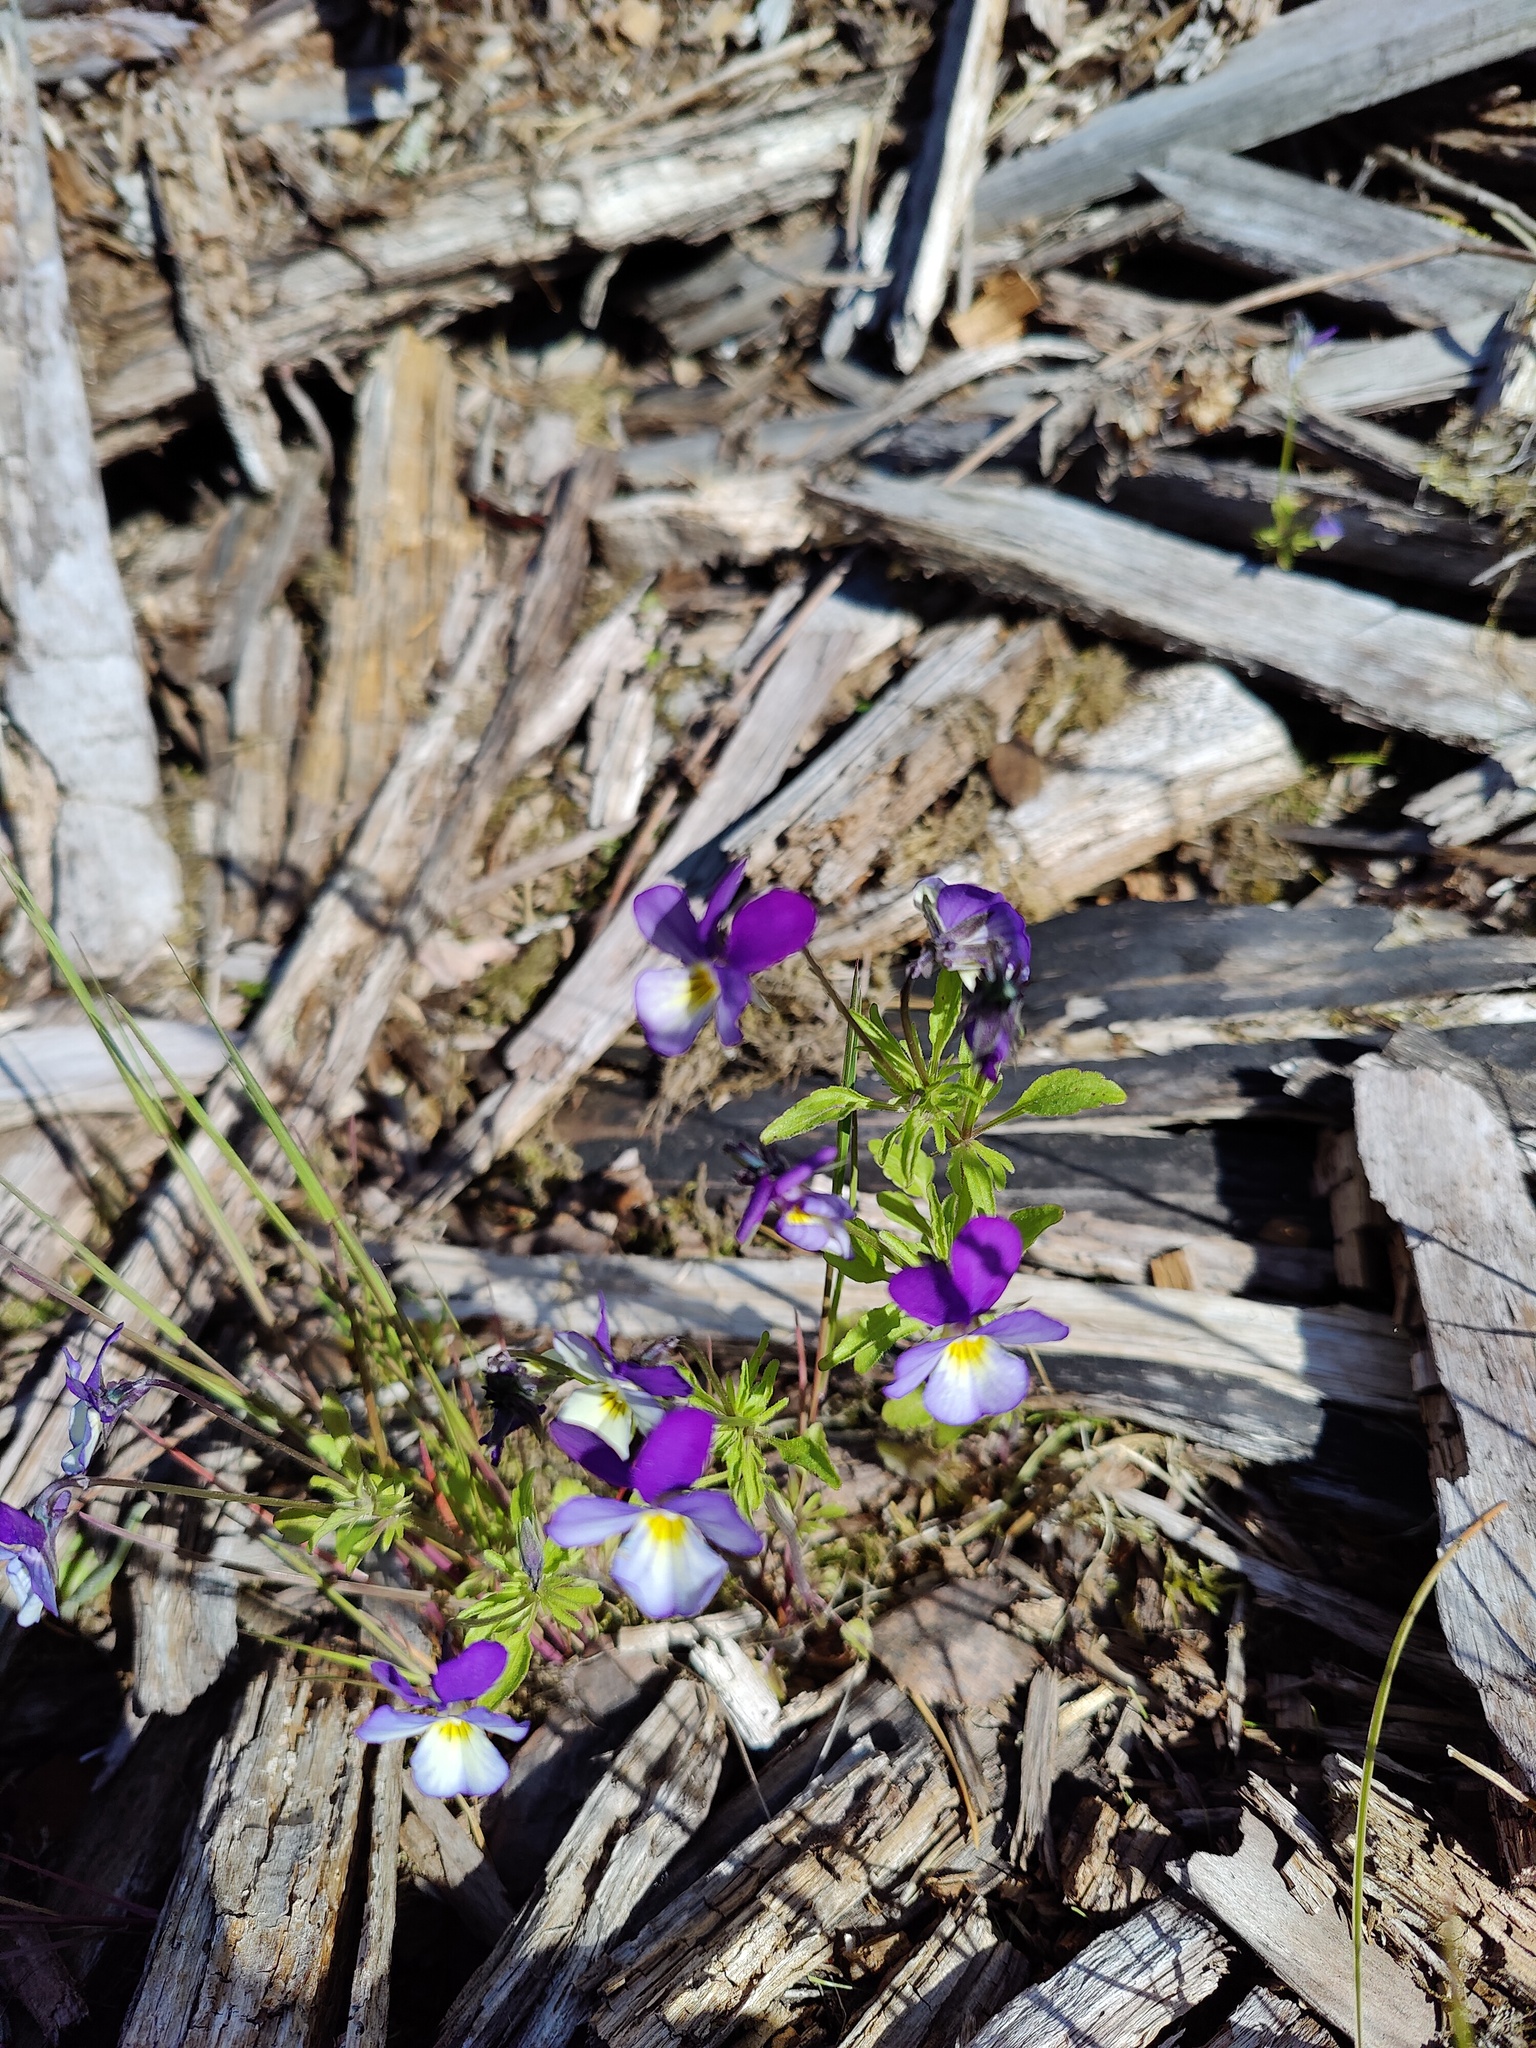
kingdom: Plantae
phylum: Tracheophyta
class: Magnoliopsida
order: Malpighiales
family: Violaceae
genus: Viola
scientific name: Viola tricolor
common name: Pansy
